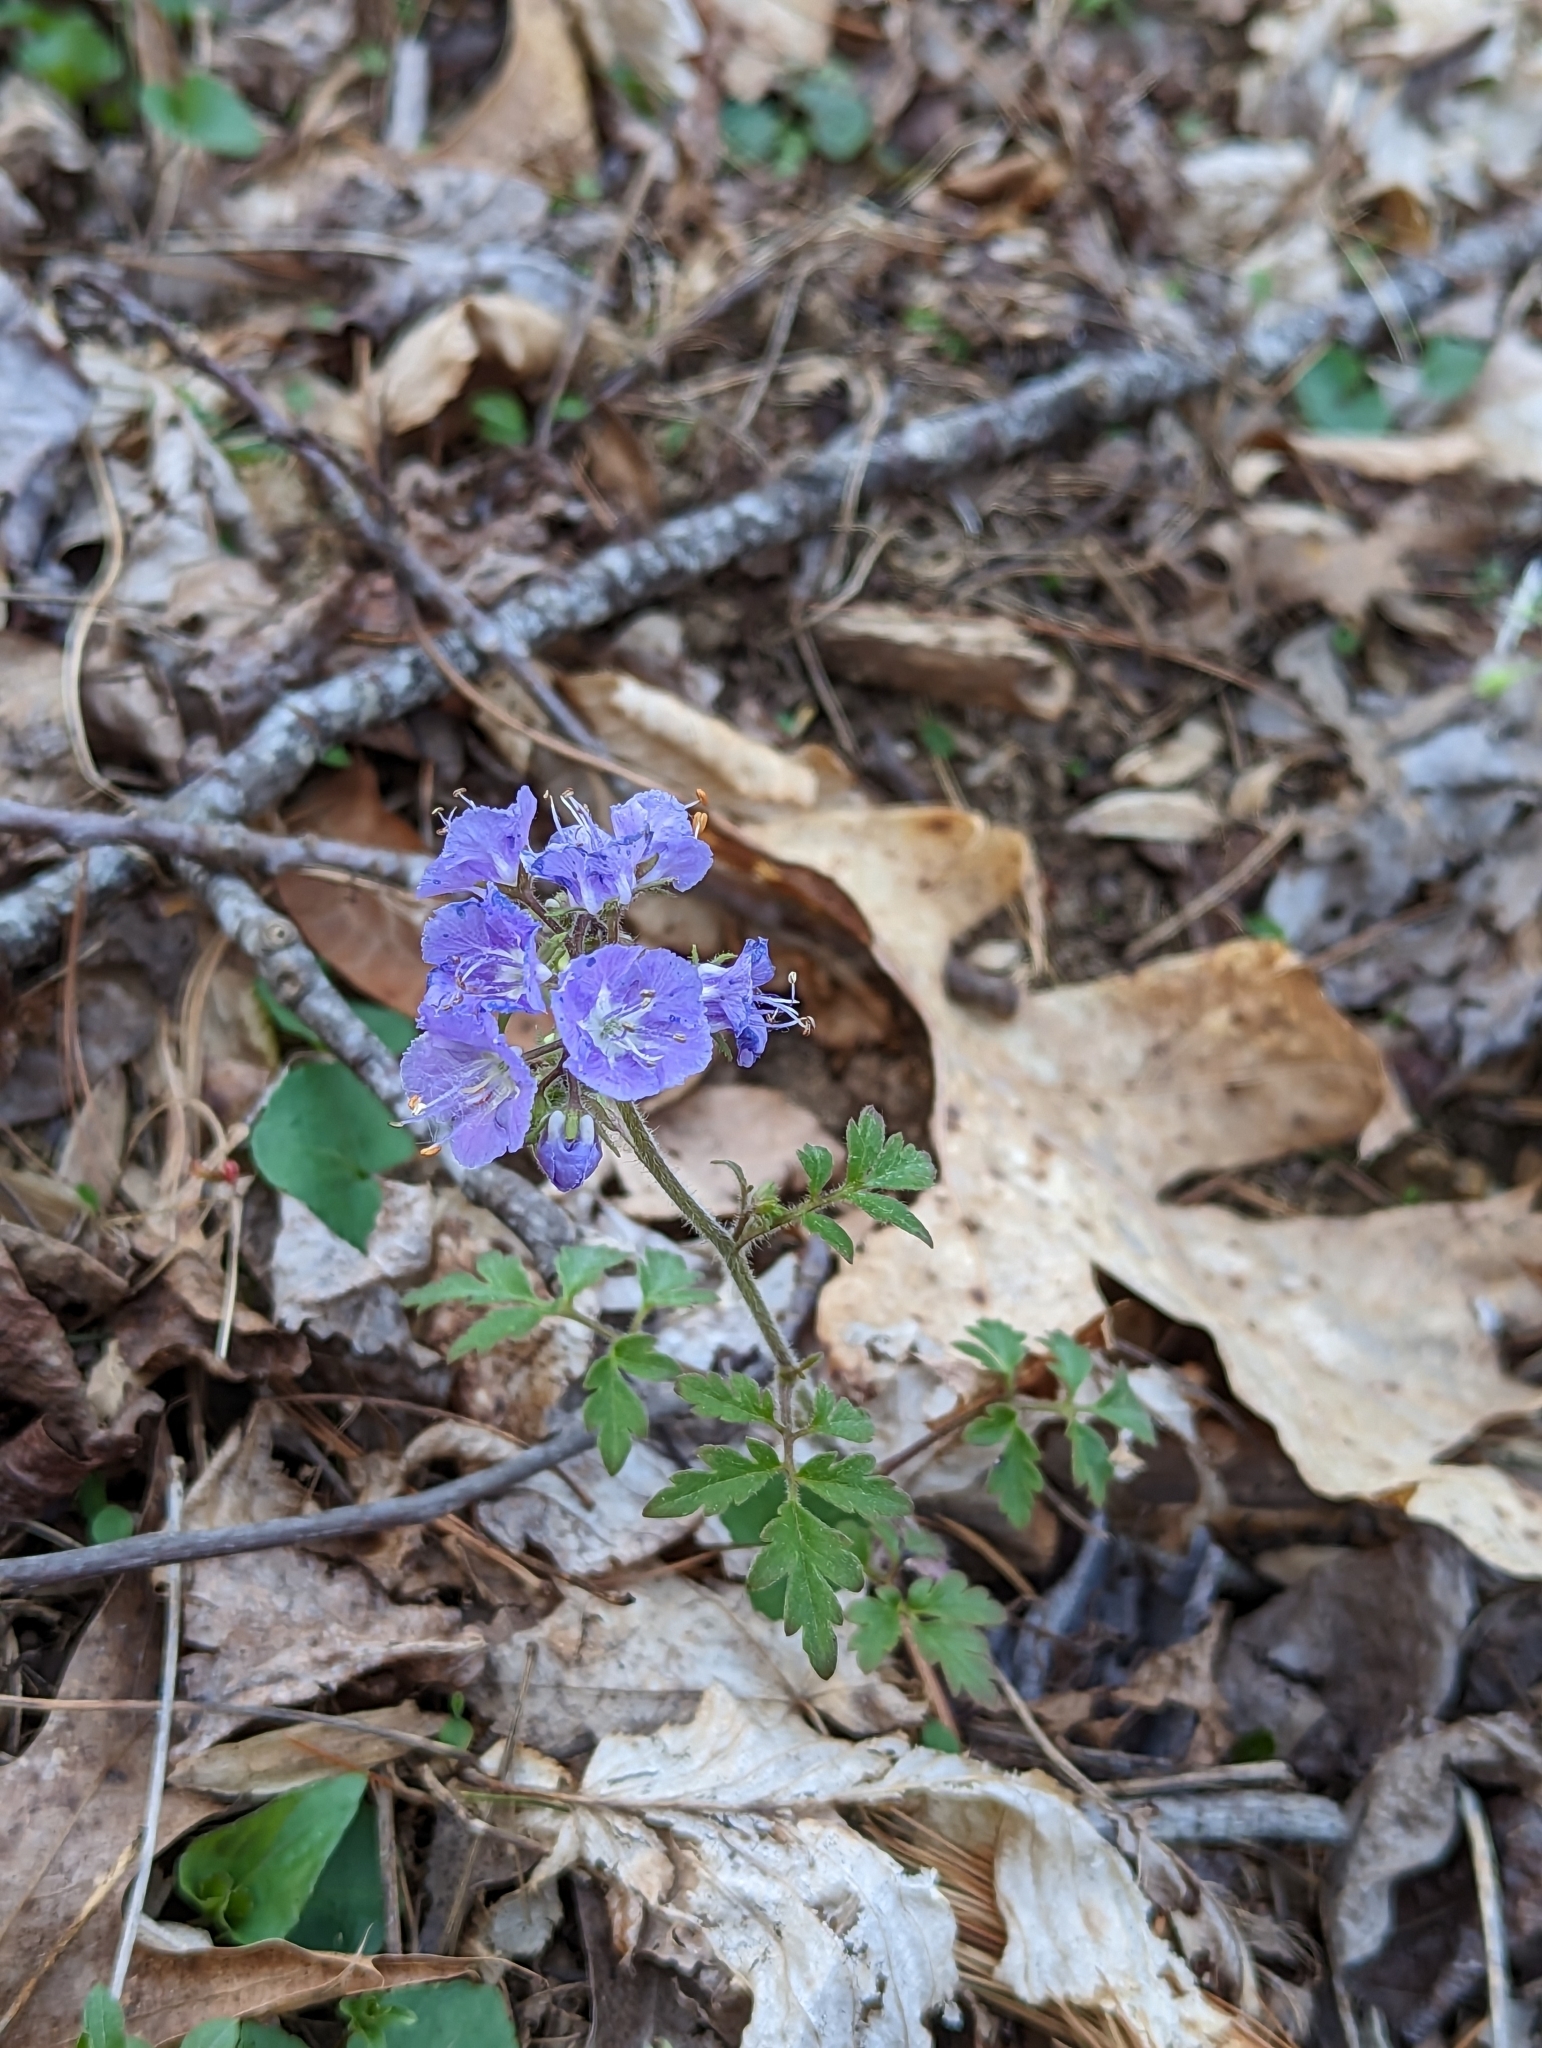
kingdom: Plantae
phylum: Tracheophyta
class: Magnoliopsida
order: Boraginales
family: Hydrophyllaceae
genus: Phacelia
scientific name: Phacelia bipinnatifida
